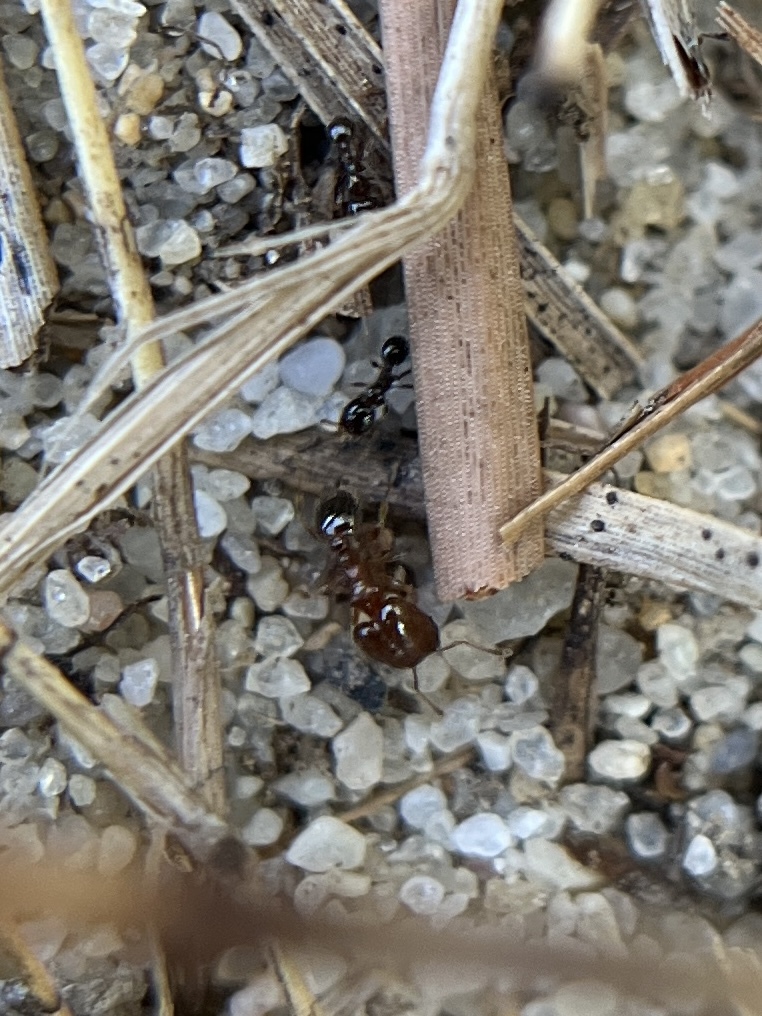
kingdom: Animalia
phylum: Arthropoda
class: Insecta
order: Hymenoptera
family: Formicidae
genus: Pheidole
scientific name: Pheidole bicarinata
